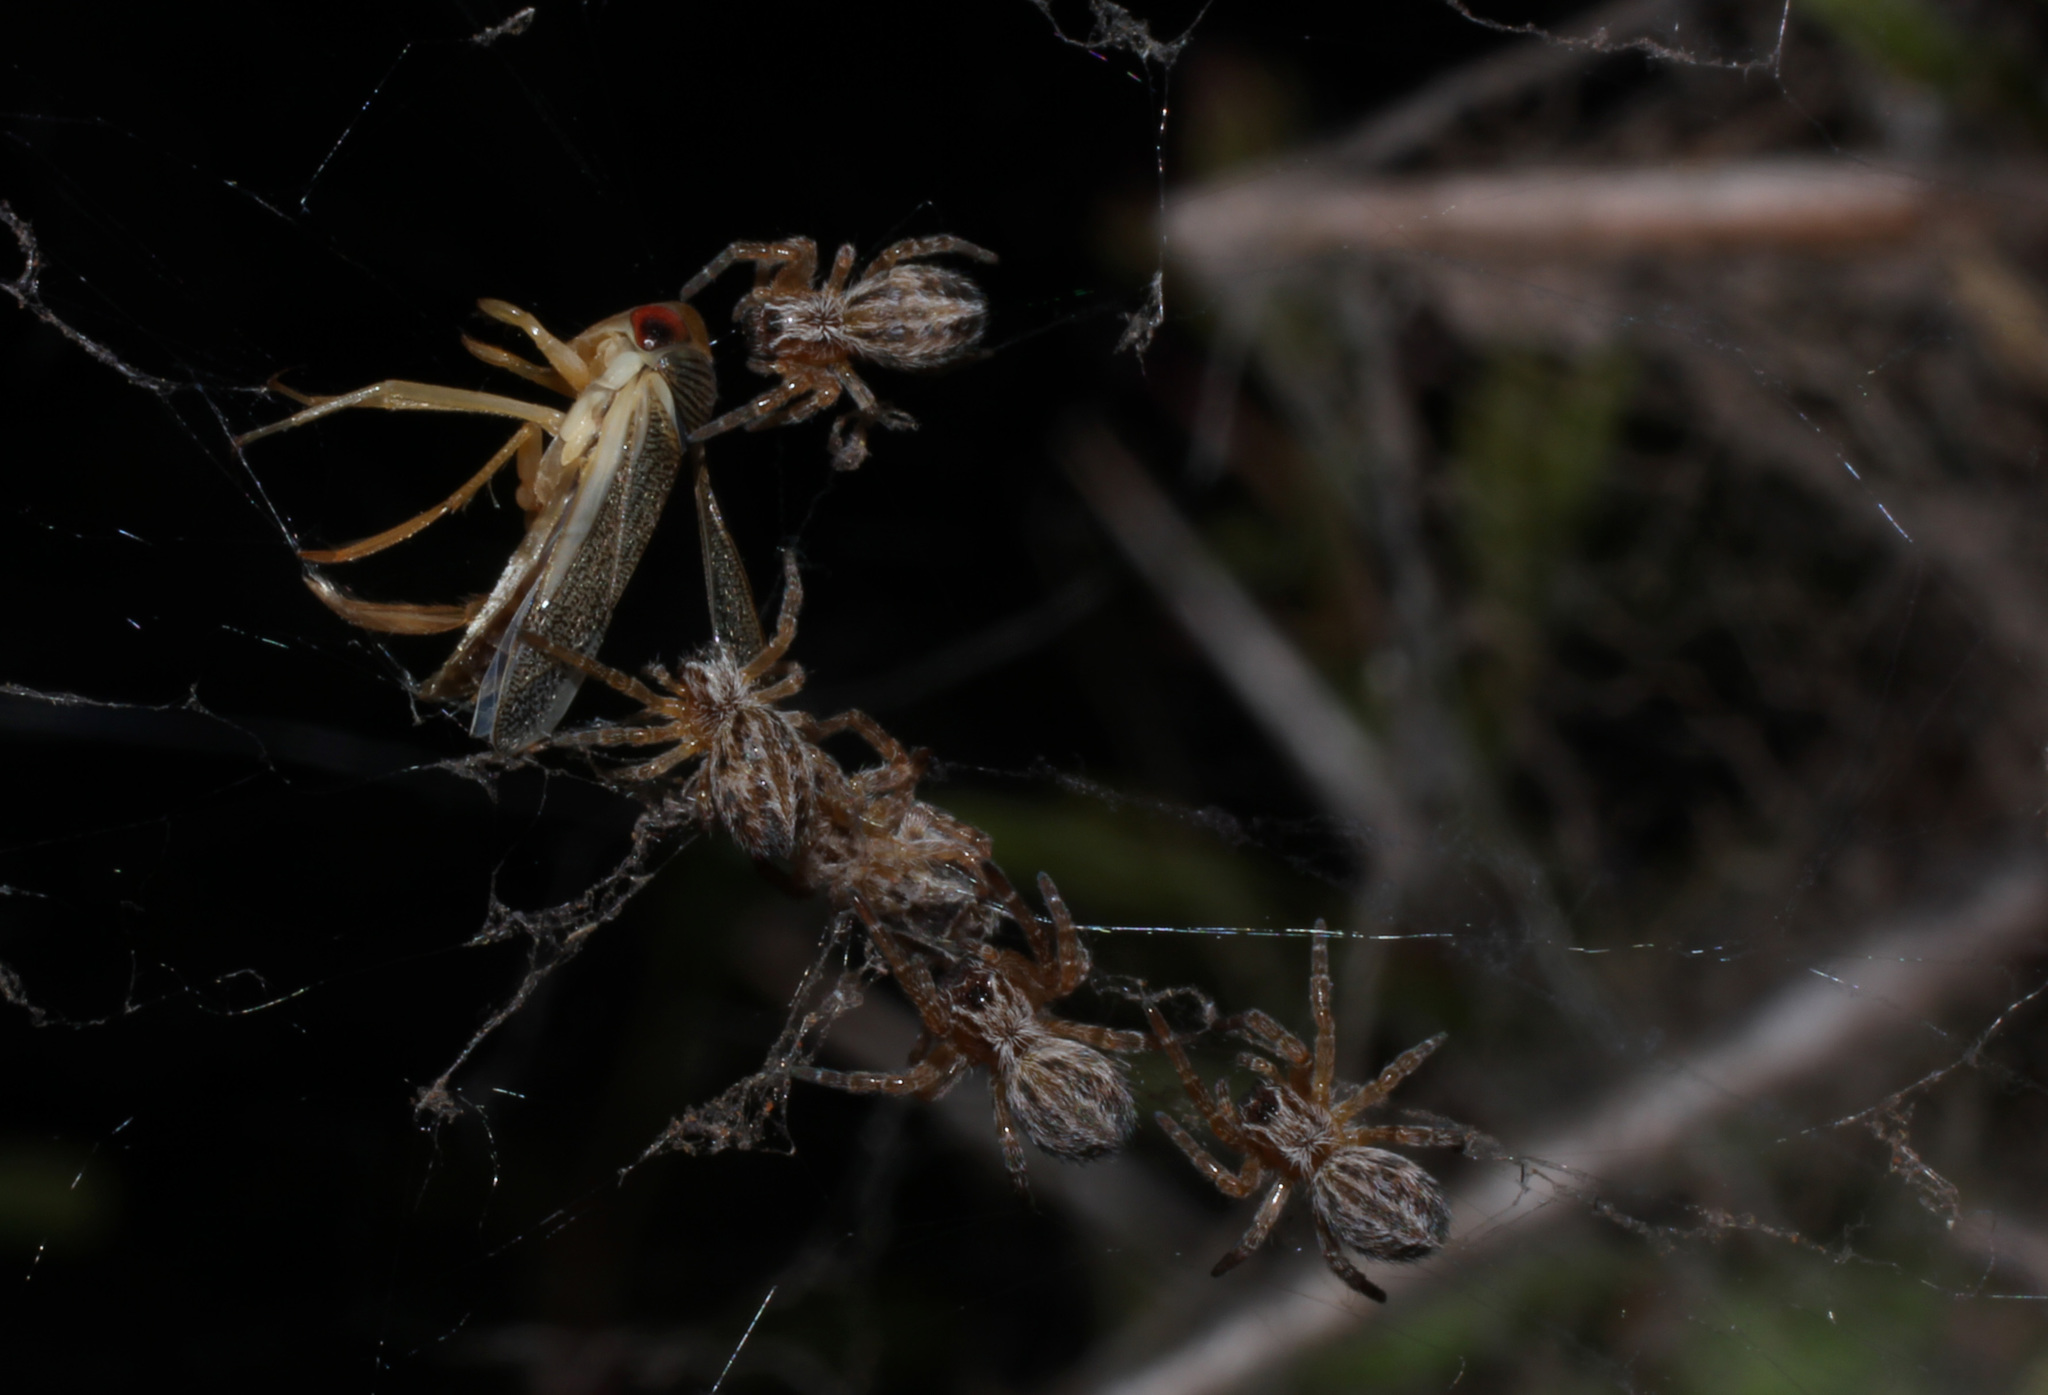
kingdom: Animalia
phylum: Arthropoda
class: Arachnida
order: Araneae
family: Eresidae
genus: Stegodyphus
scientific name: Stegodyphus dumicola
